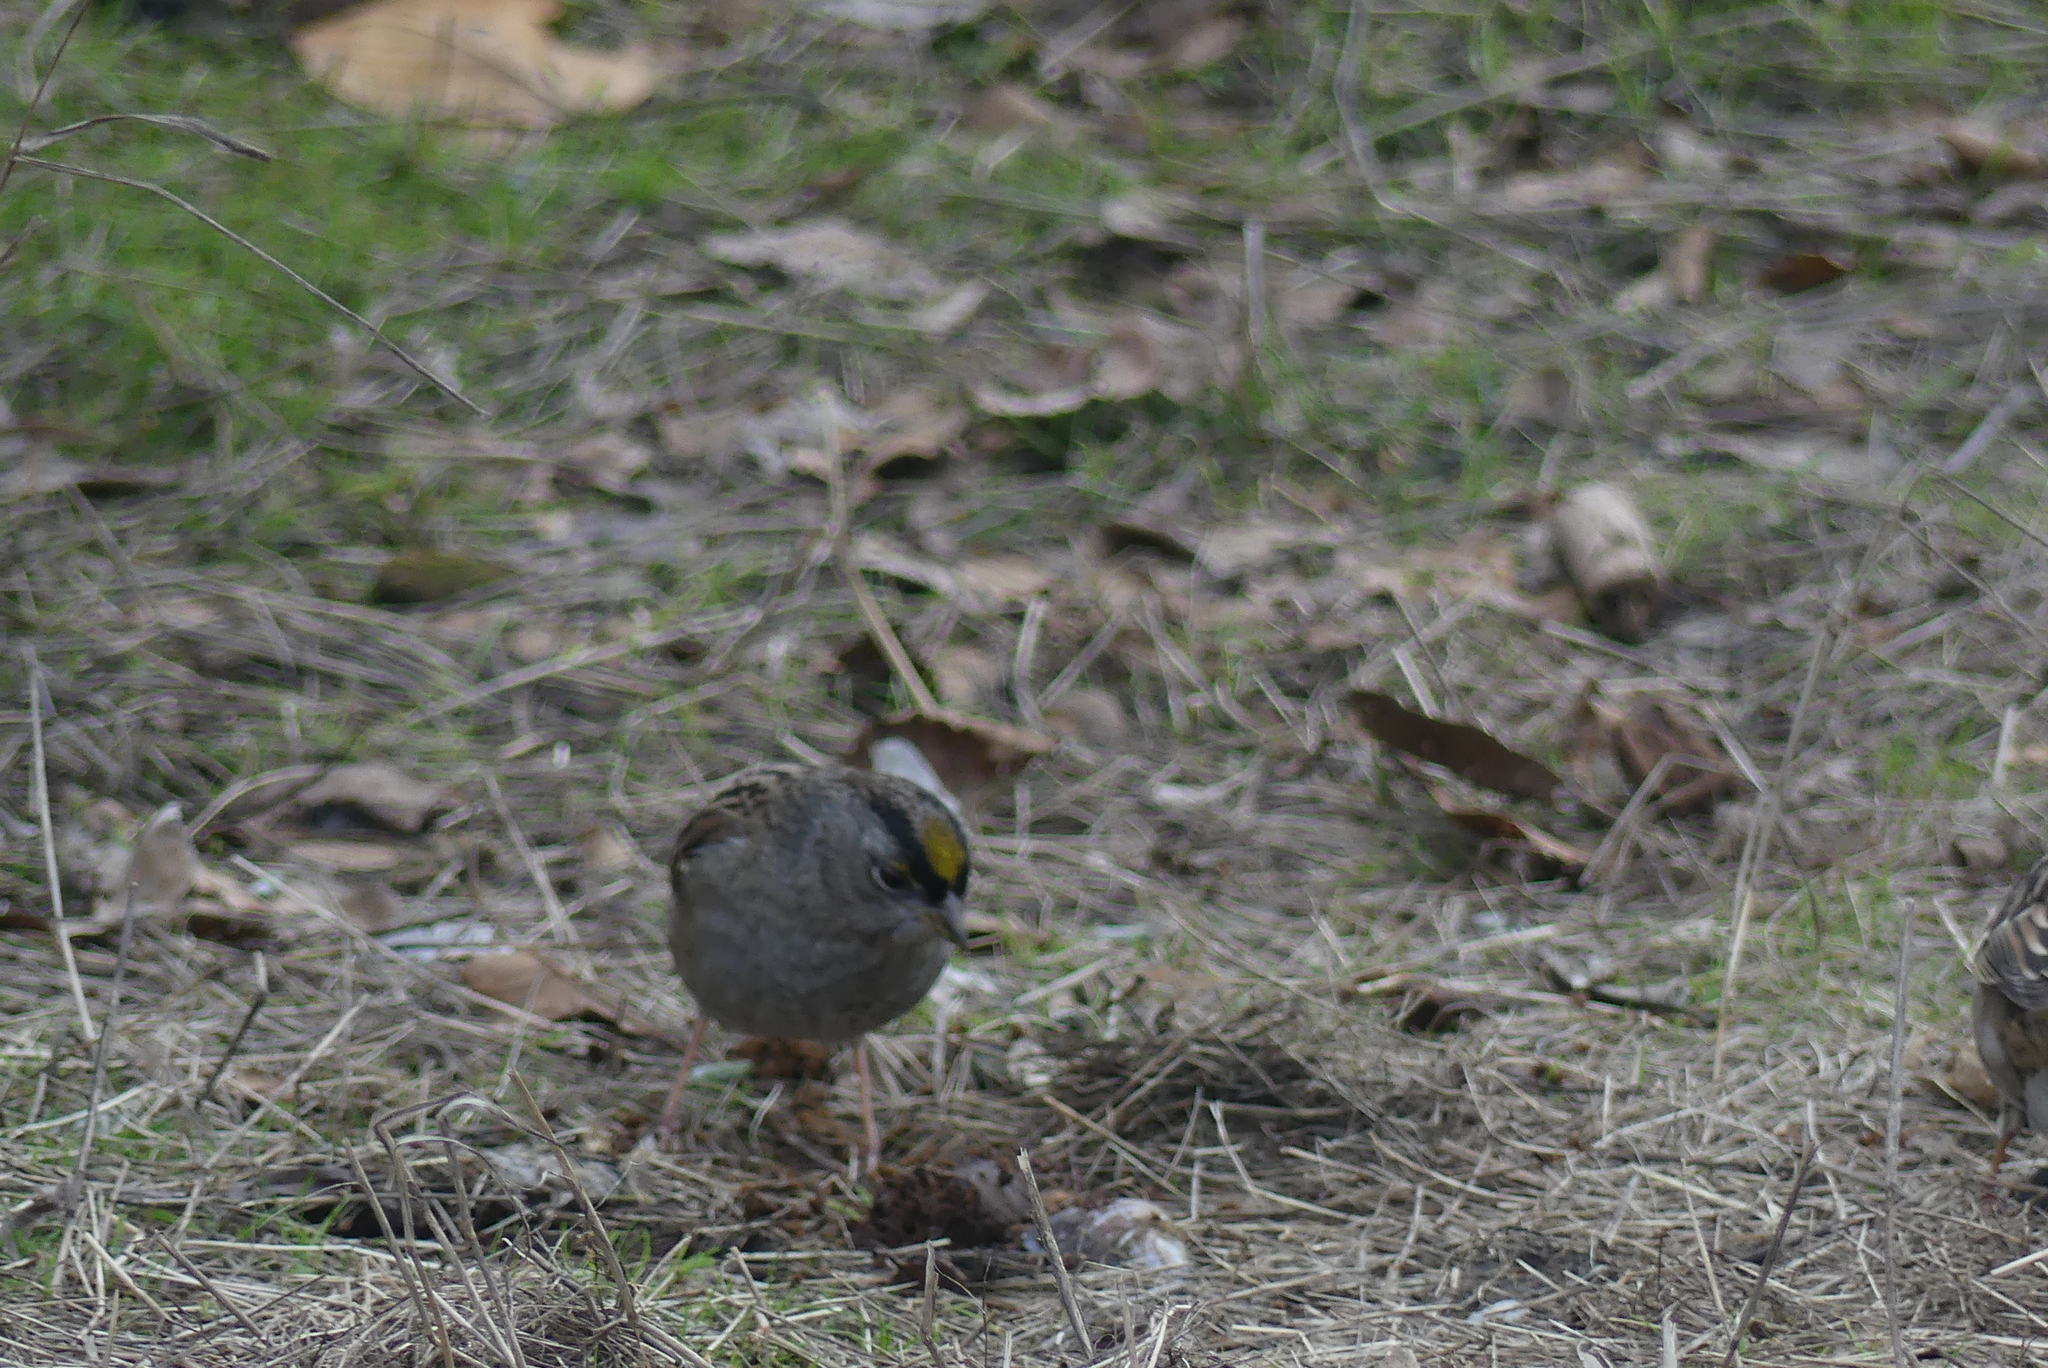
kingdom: Animalia
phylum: Chordata
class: Aves
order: Passeriformes
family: Passerellidae
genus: Zonotrichia
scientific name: Zonotrichia atricapilla
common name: Golden-crowned sparrow
